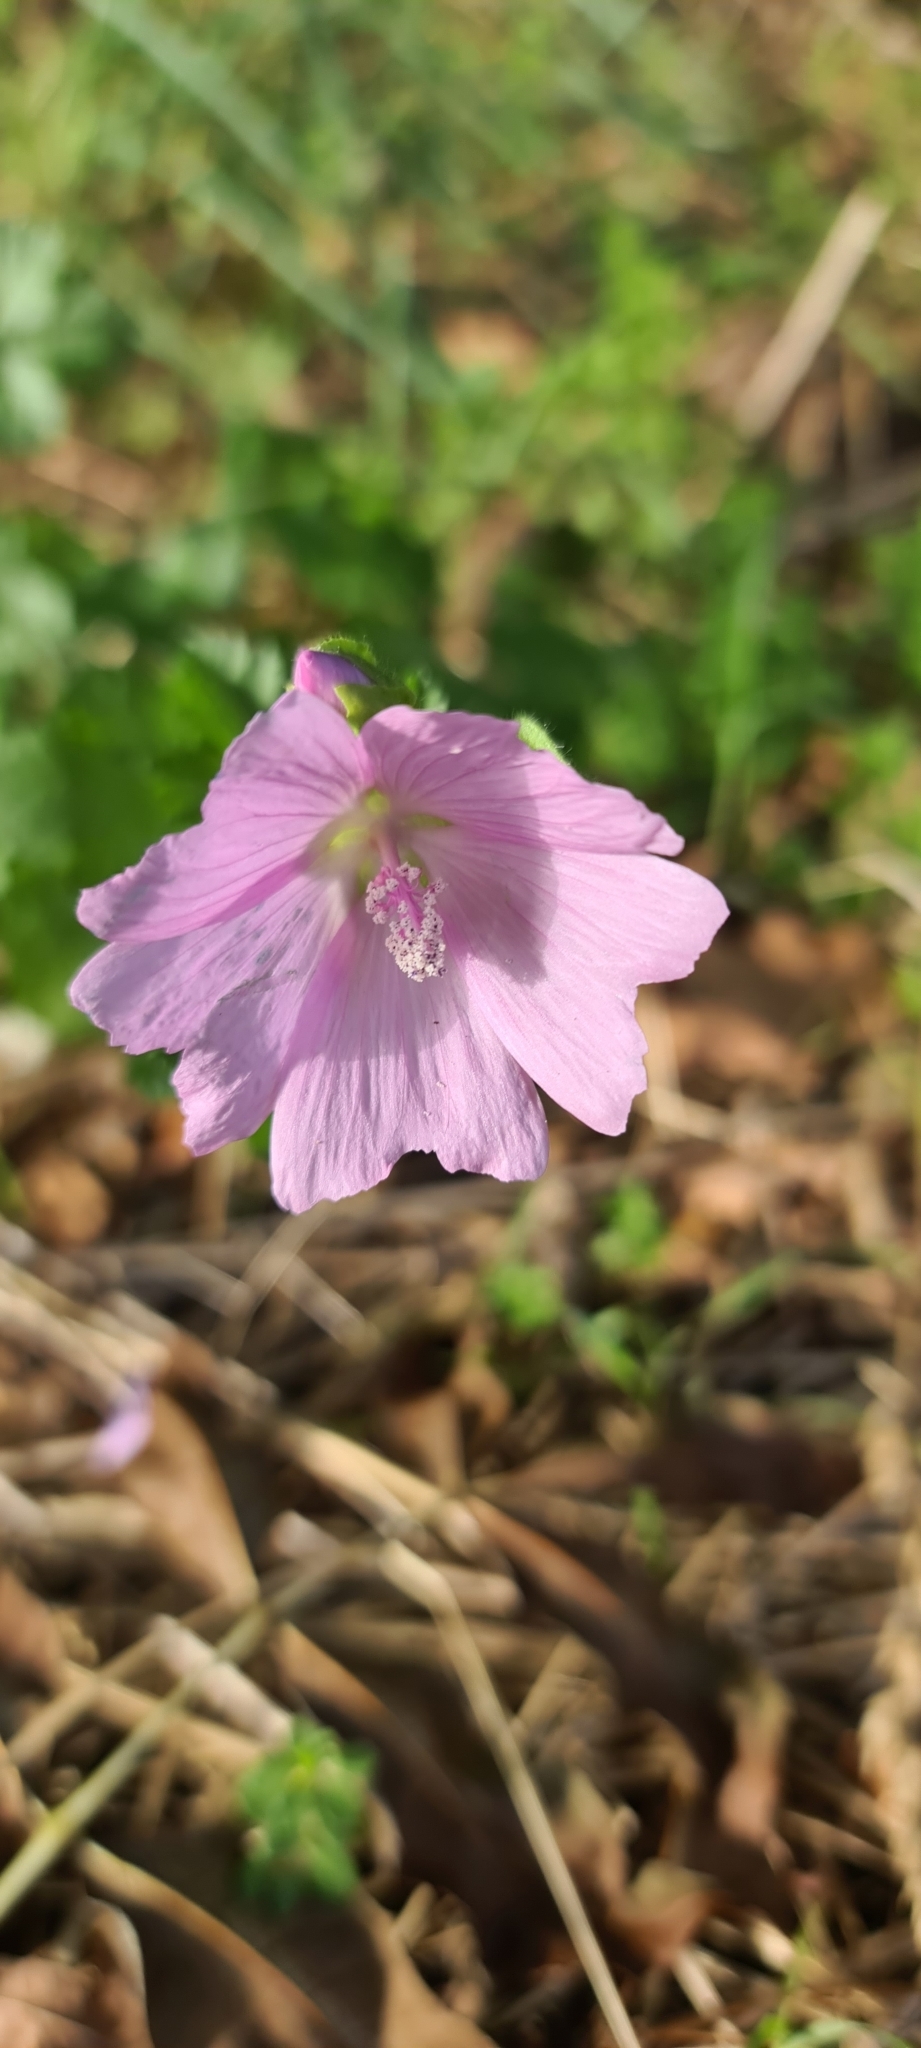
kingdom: Plantae
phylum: Tracheophyta
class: Magnoliopsida
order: Malvales
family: Malvaceae
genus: Malva
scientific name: Malva moschata
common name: Musk mallow
